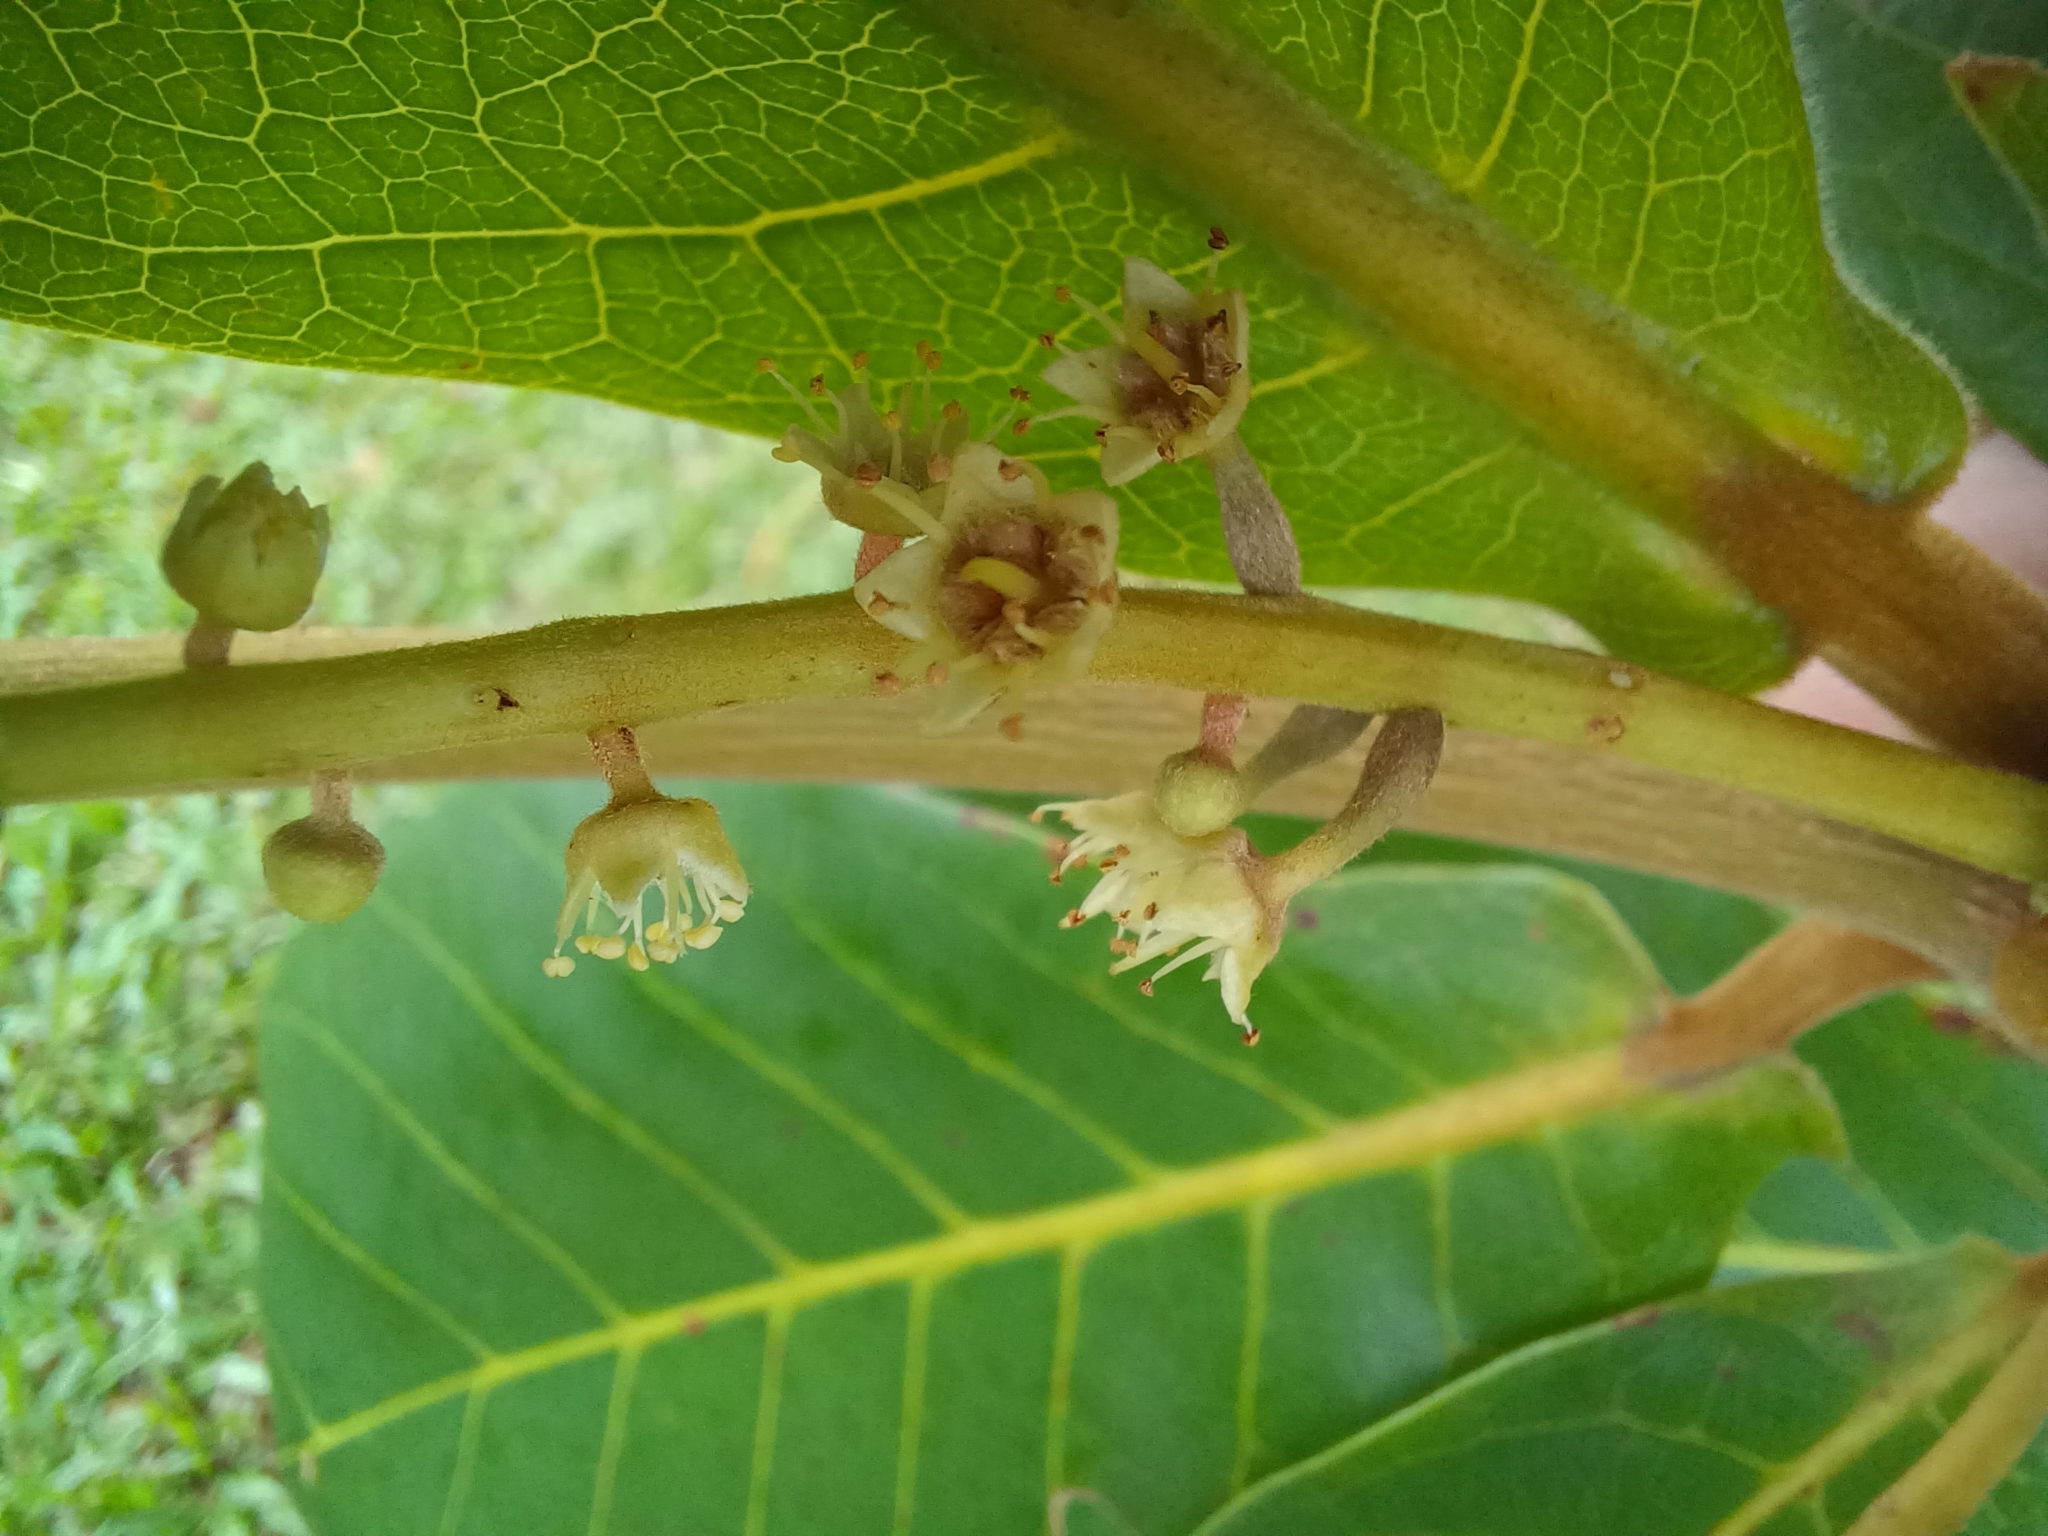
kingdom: Plantae
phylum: Tracheophyta
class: Magnoliopsida
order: Myrtales
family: Combretaceae
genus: Terminalia
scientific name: Terminalia catappa
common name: Tropical almond
